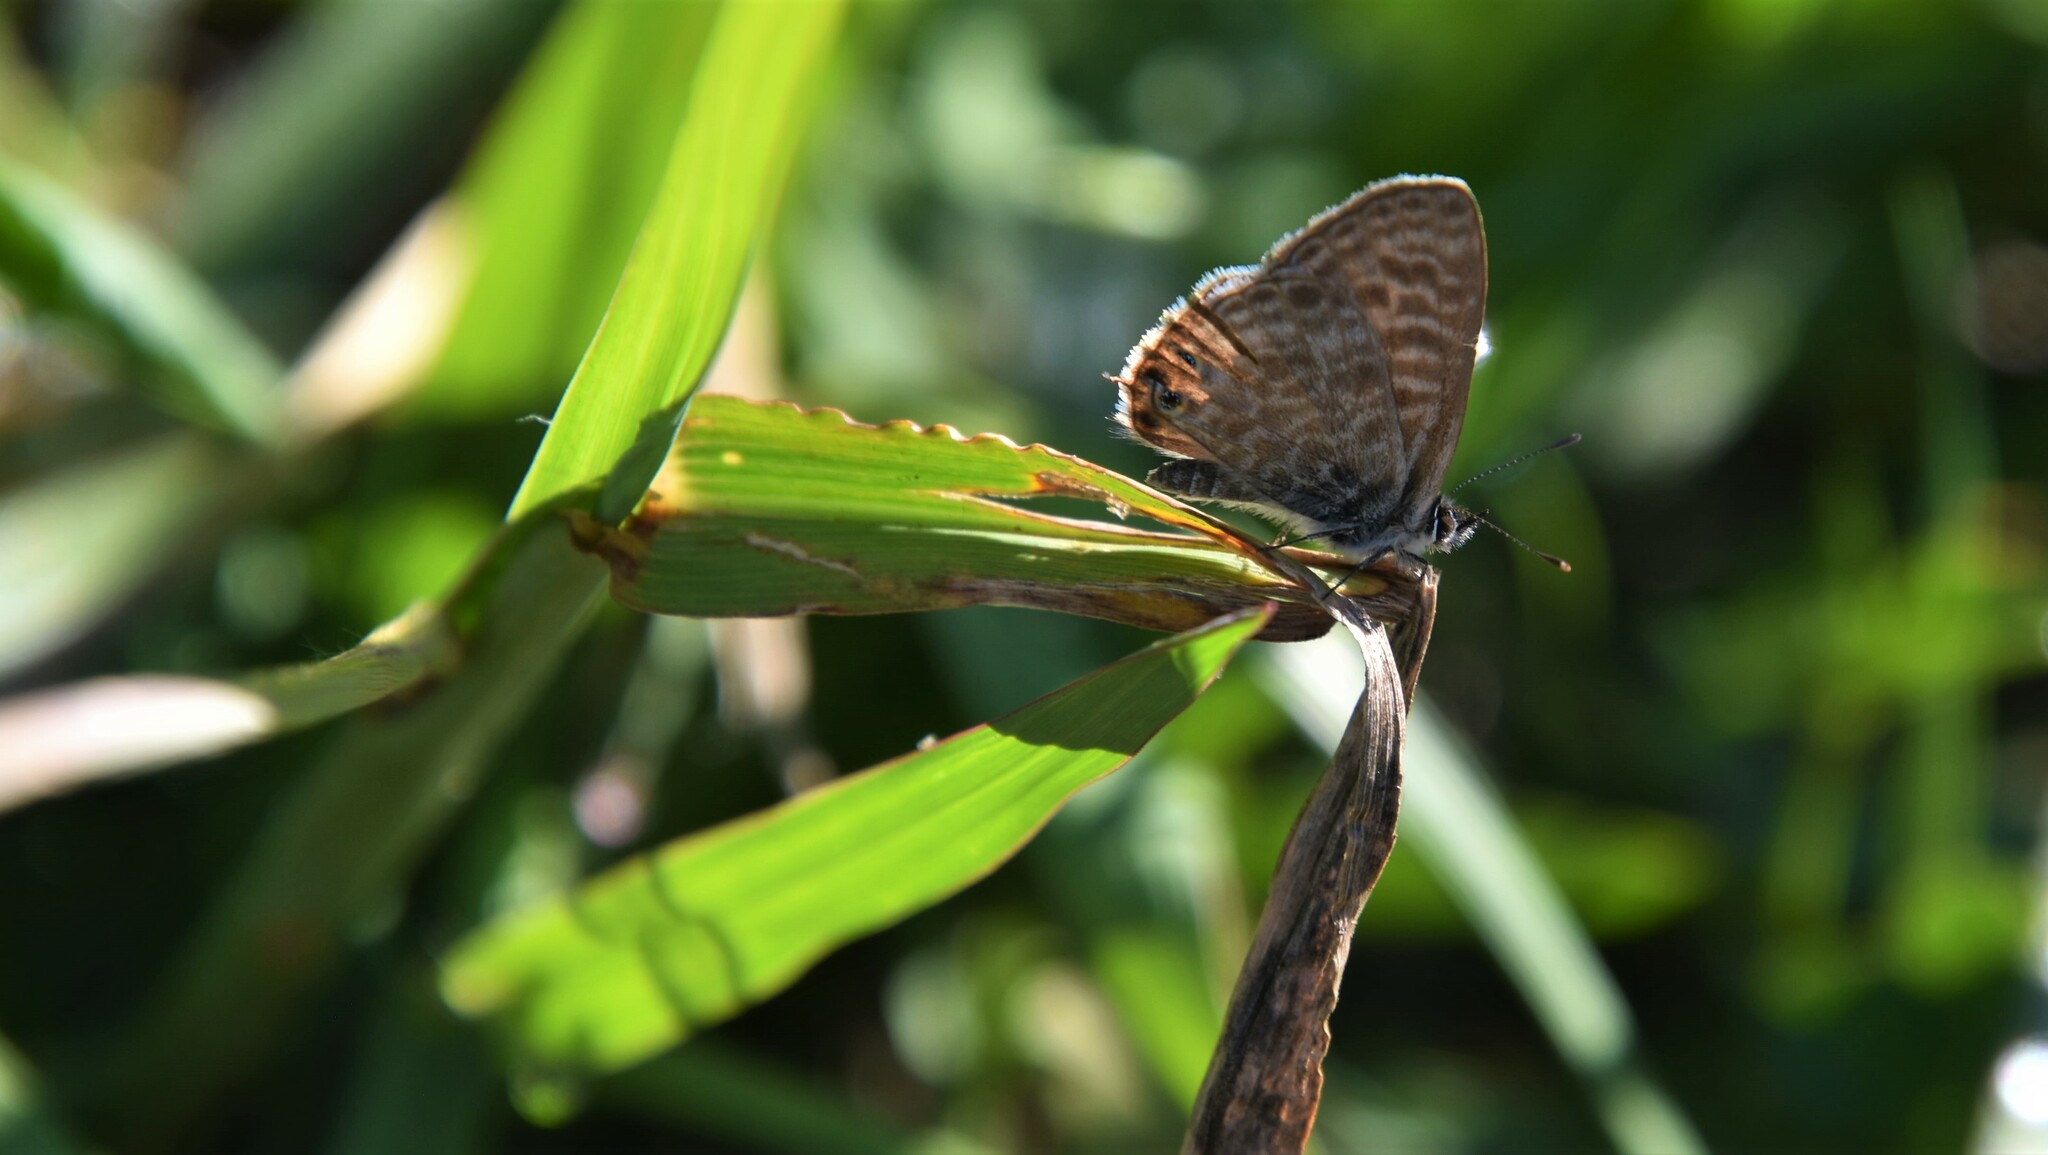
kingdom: Animalia
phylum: Arthropoda
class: Insecta
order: Lepidoptera
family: Lycaenidae
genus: Leptotes
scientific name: Leptotes pirithous
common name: Lang's short-tailed blue
